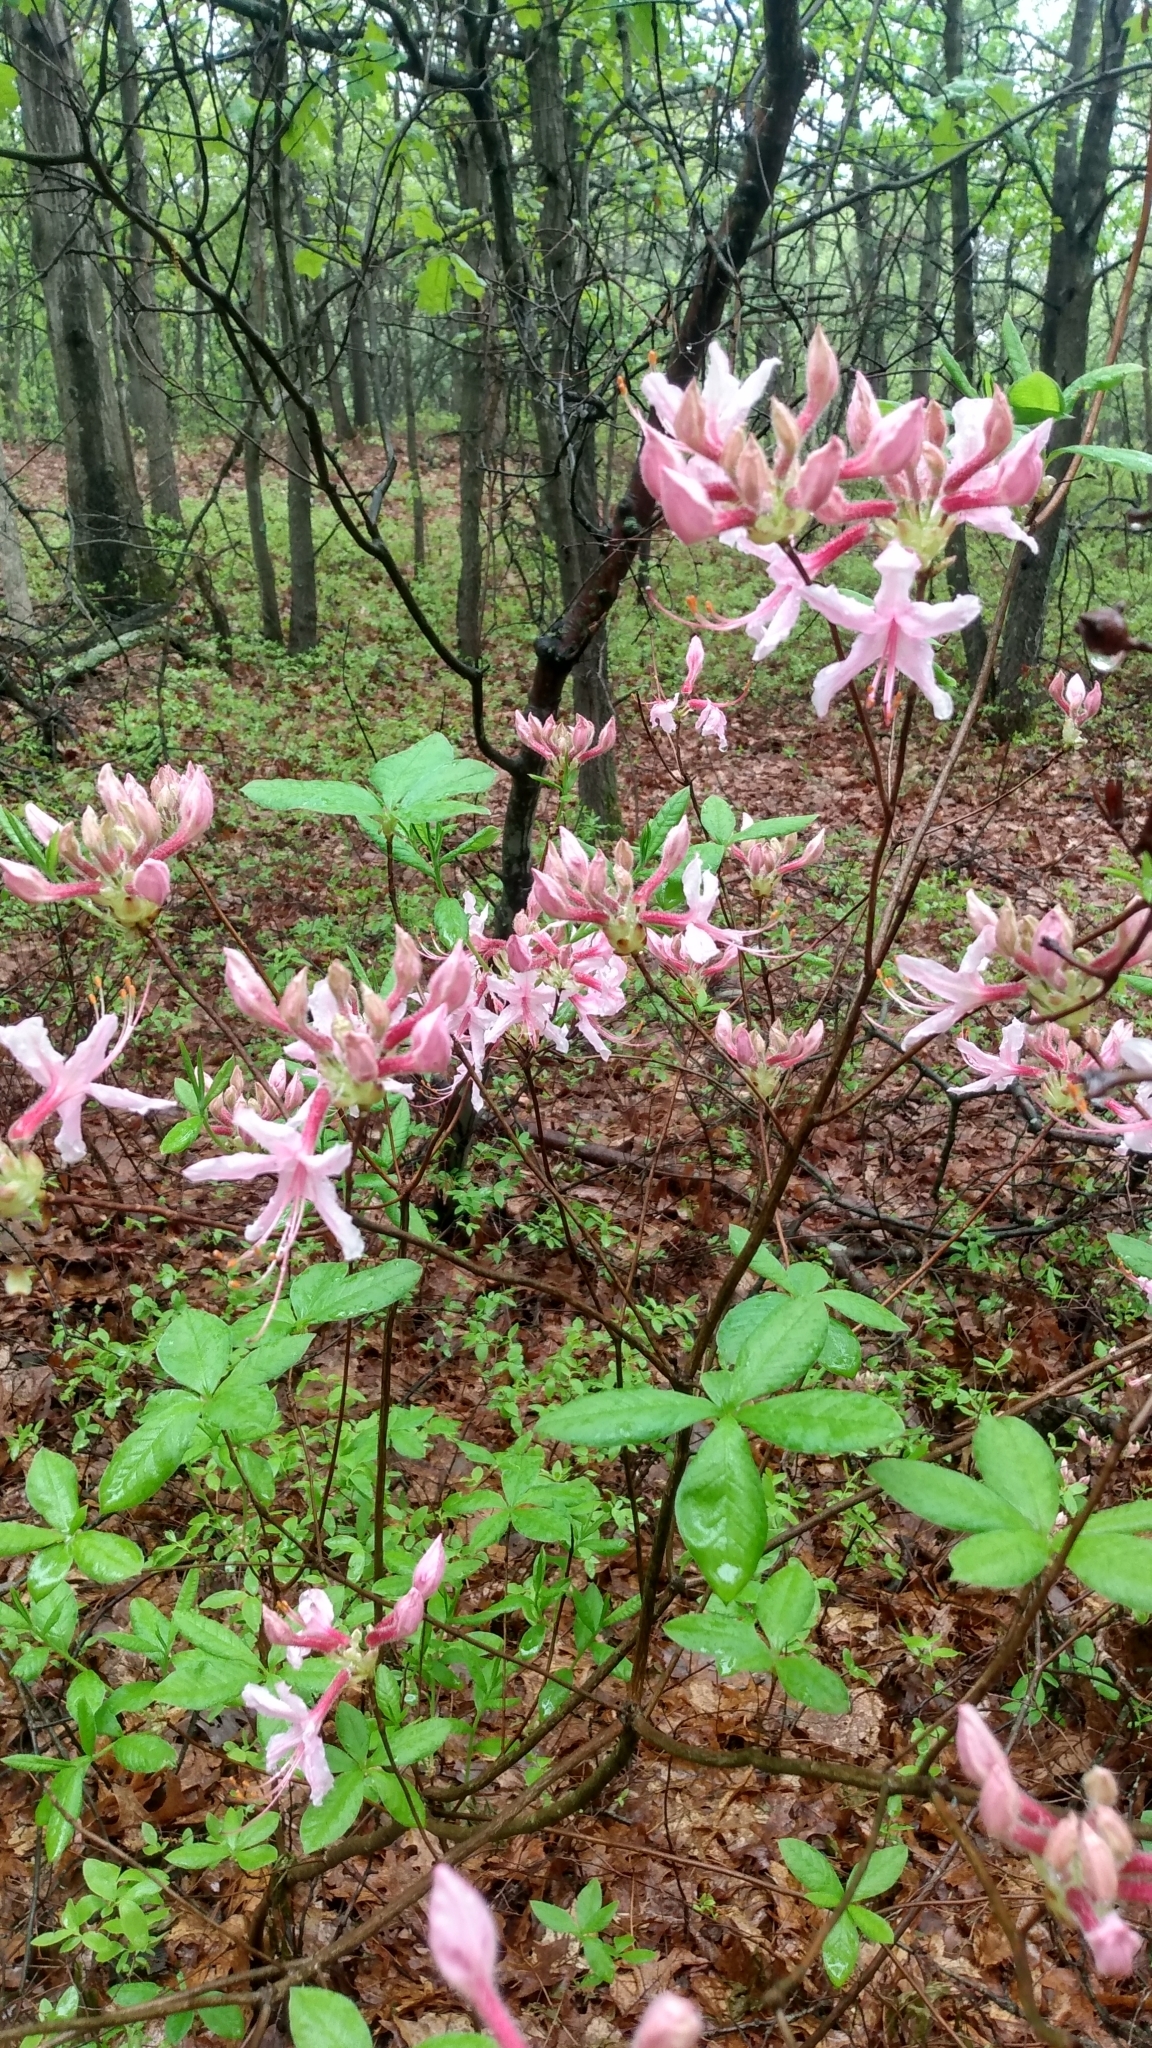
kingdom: Plantae
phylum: Tracheophyta
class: Magnoliopsida
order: Ericales
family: Ericaceae
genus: Rhododendron
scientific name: Rhododendron periclymenoides
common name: Election-pink
